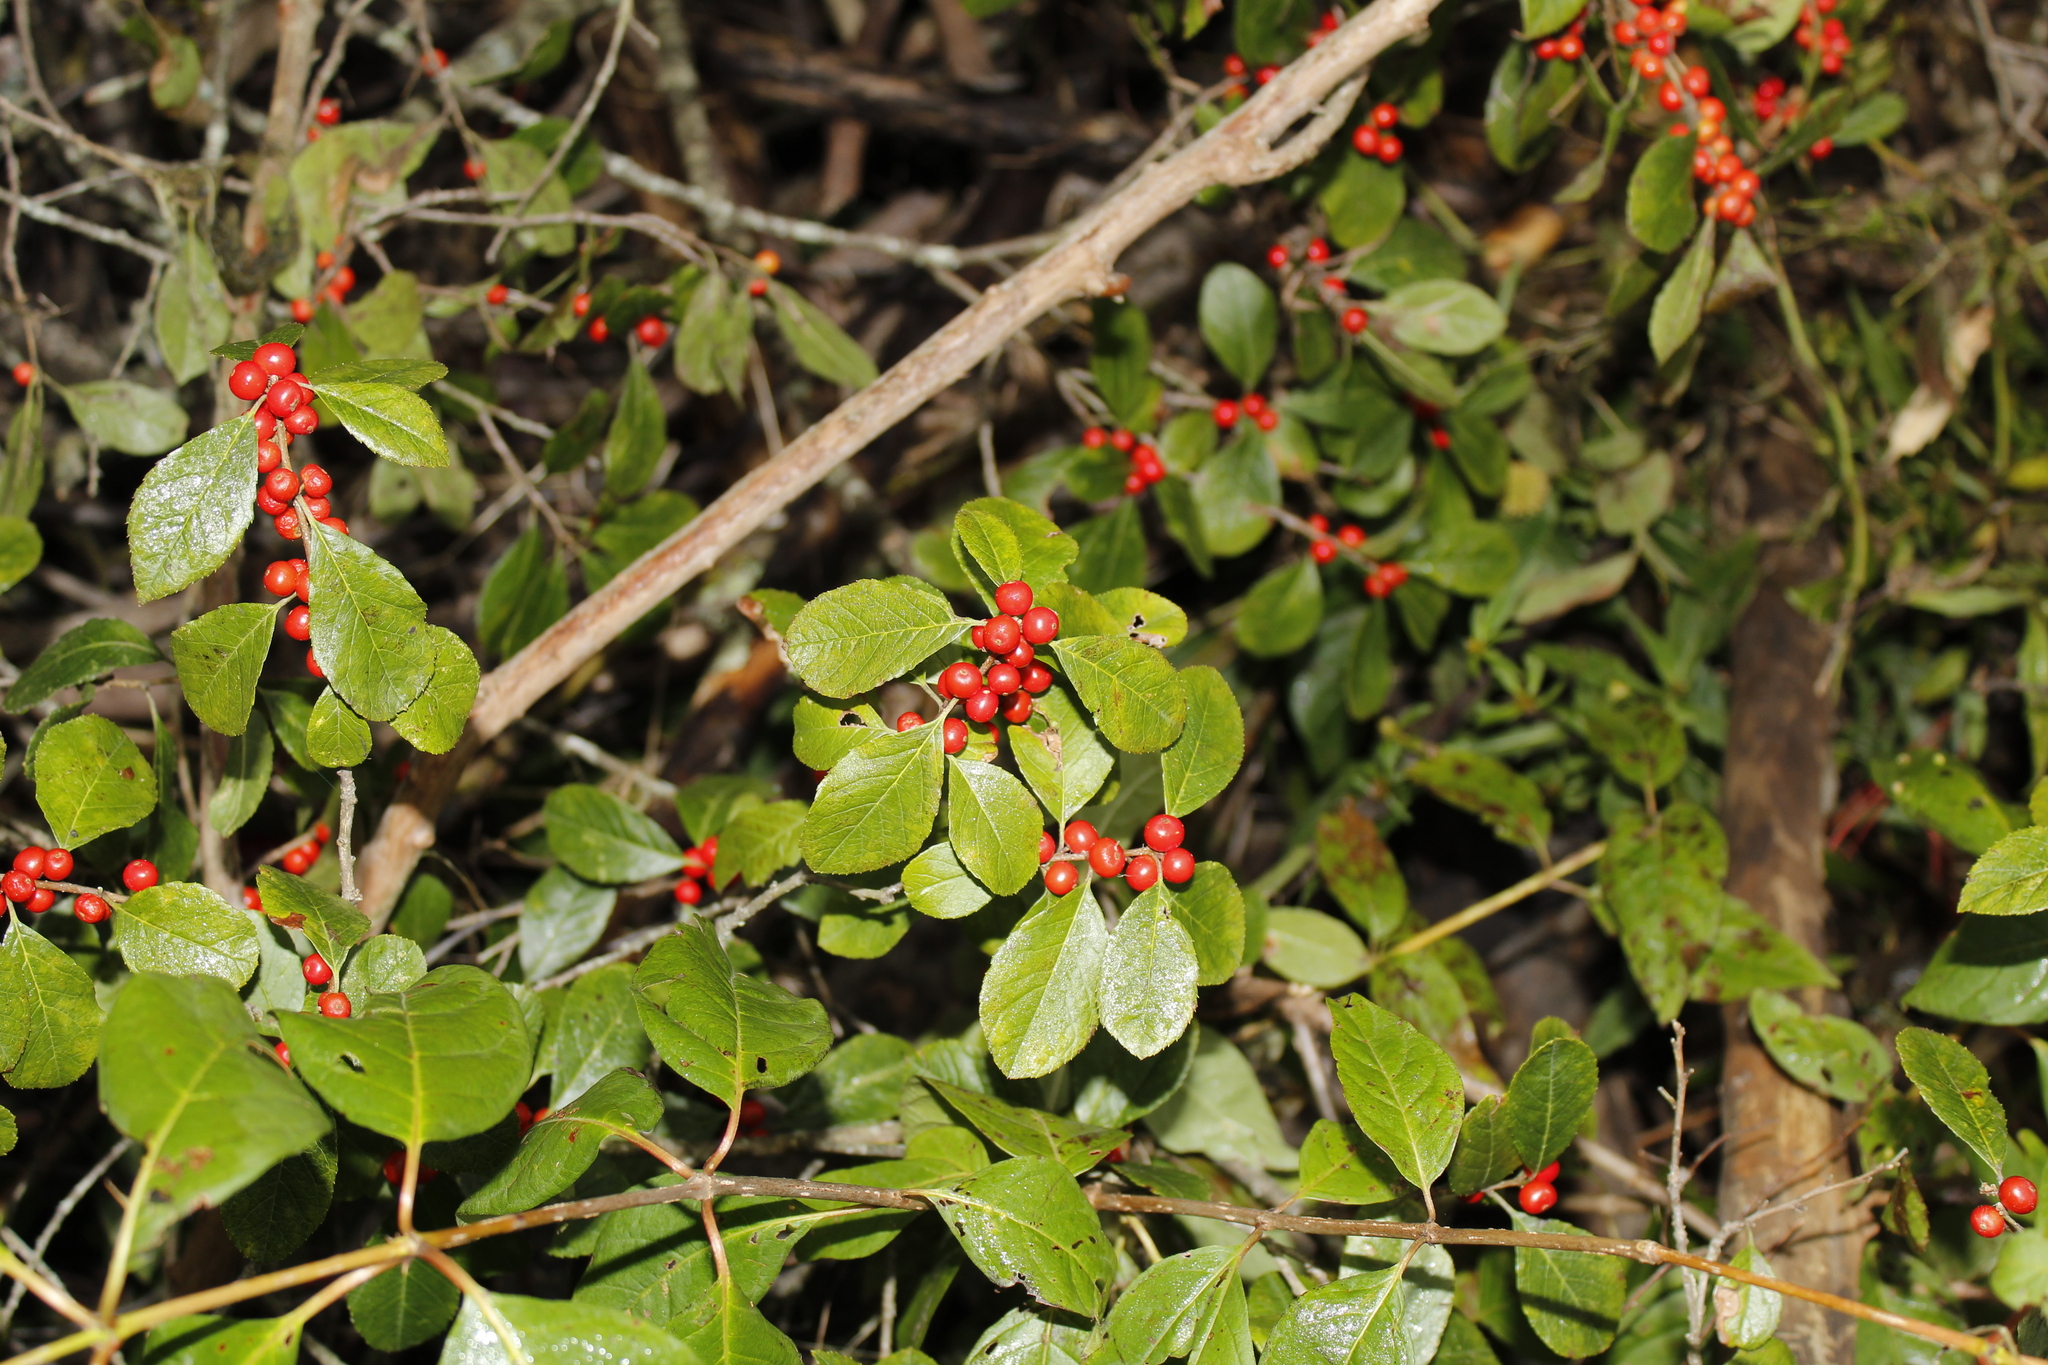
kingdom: Plantae
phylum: Tracheophyta
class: Magnoliopsida
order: Aquifoliales
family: Aquifoliaceae
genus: Ilex
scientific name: Ilex verticillata
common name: Virginia winterberry
